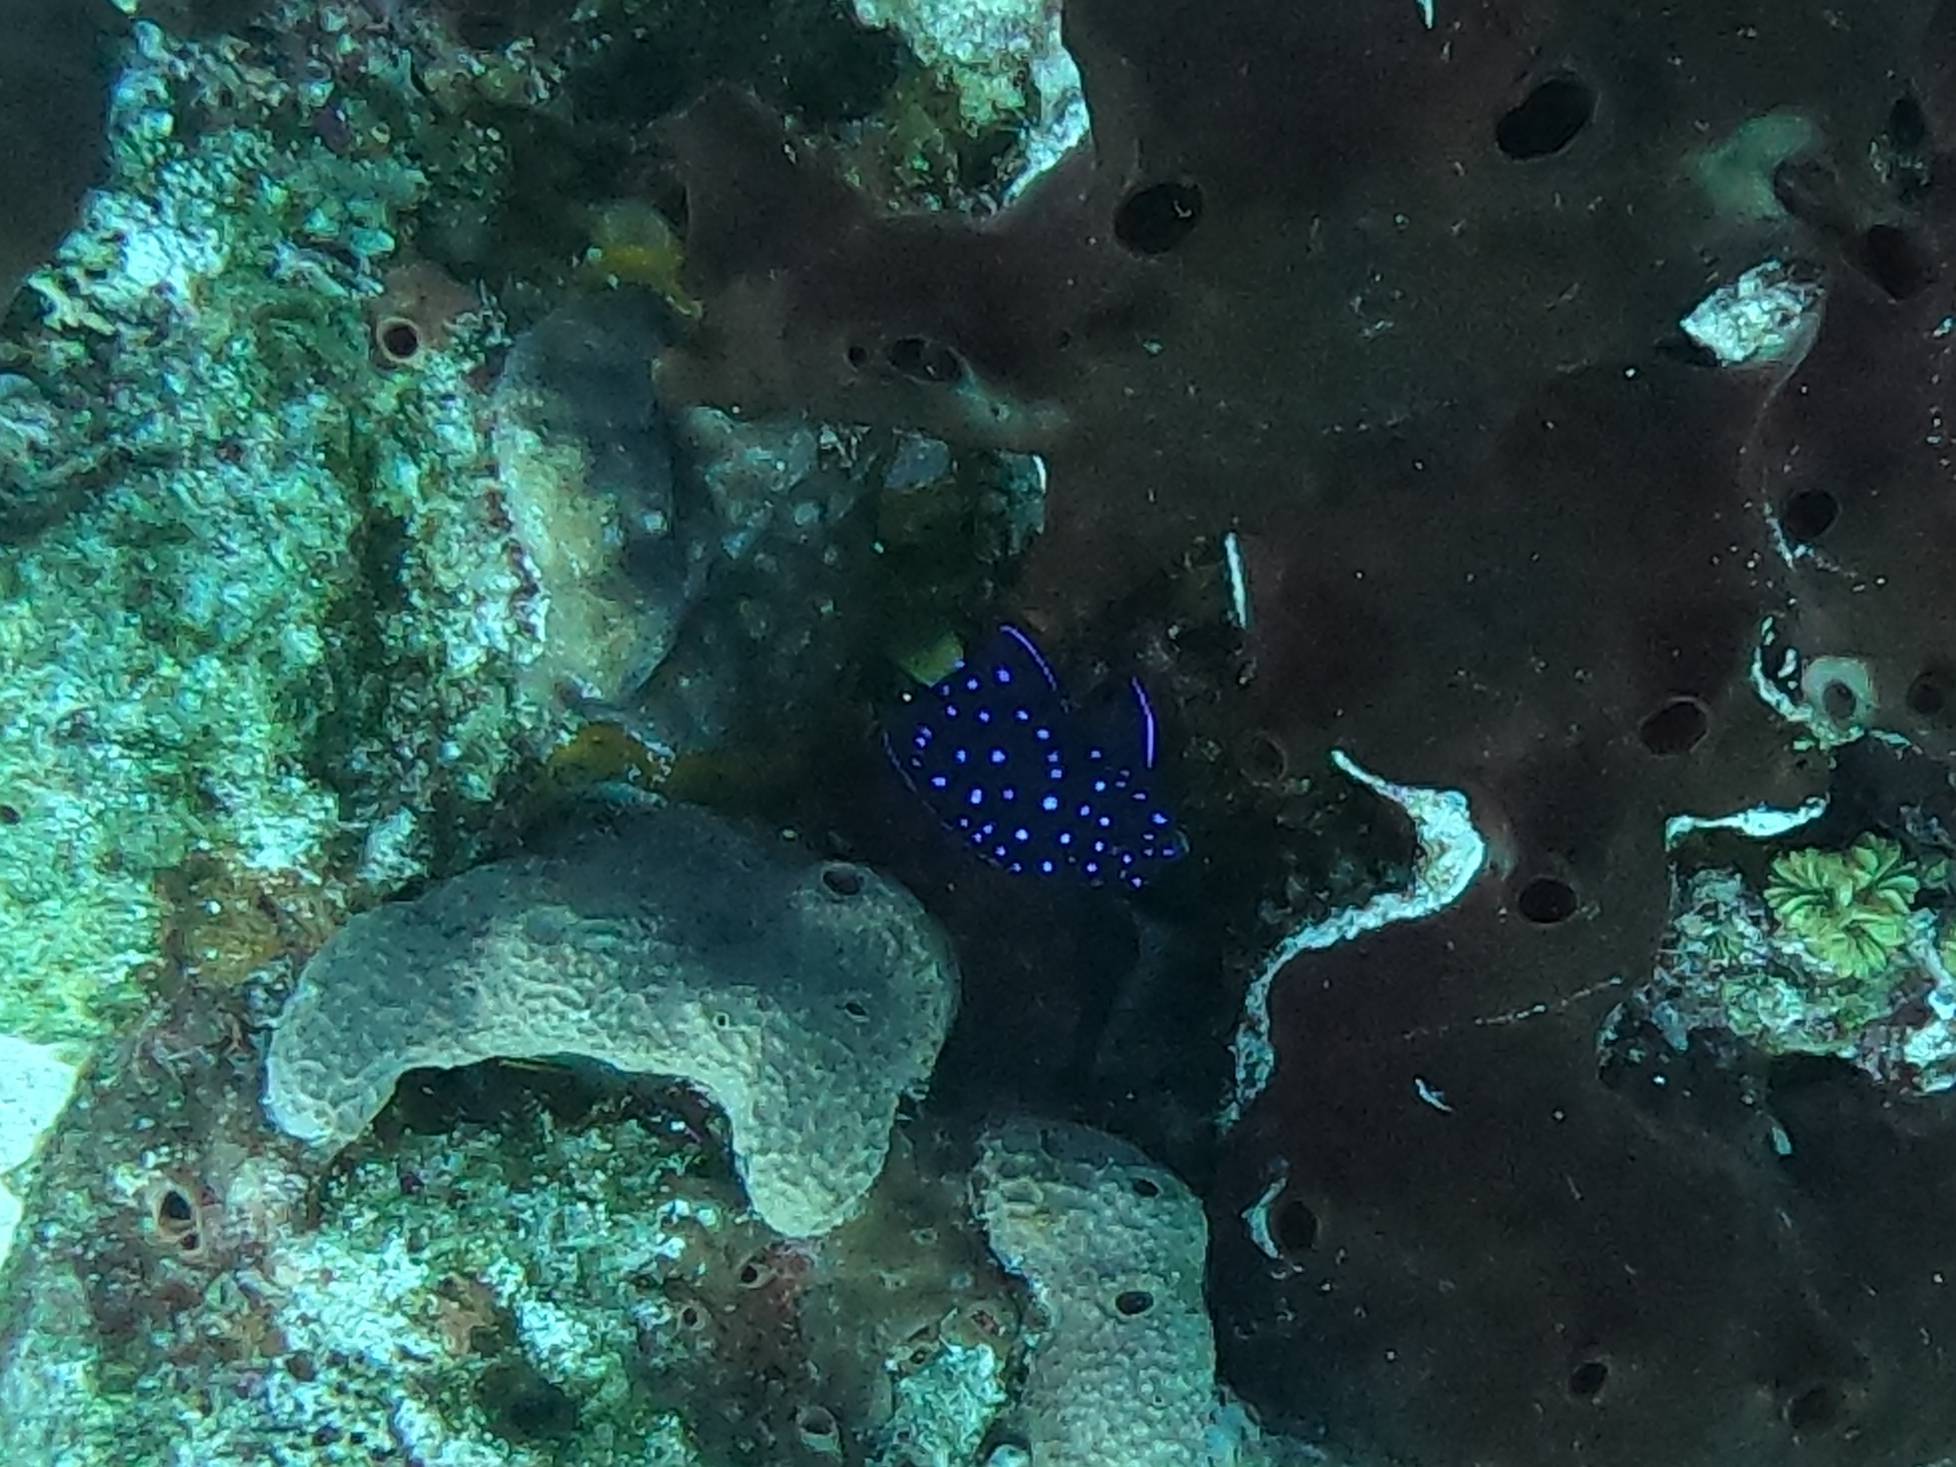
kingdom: Animalia
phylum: Chordata
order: Perciformes
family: Pomacentridae
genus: Microspathodon
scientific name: Microspathodon chrysurus
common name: Yellowtail damselfish
